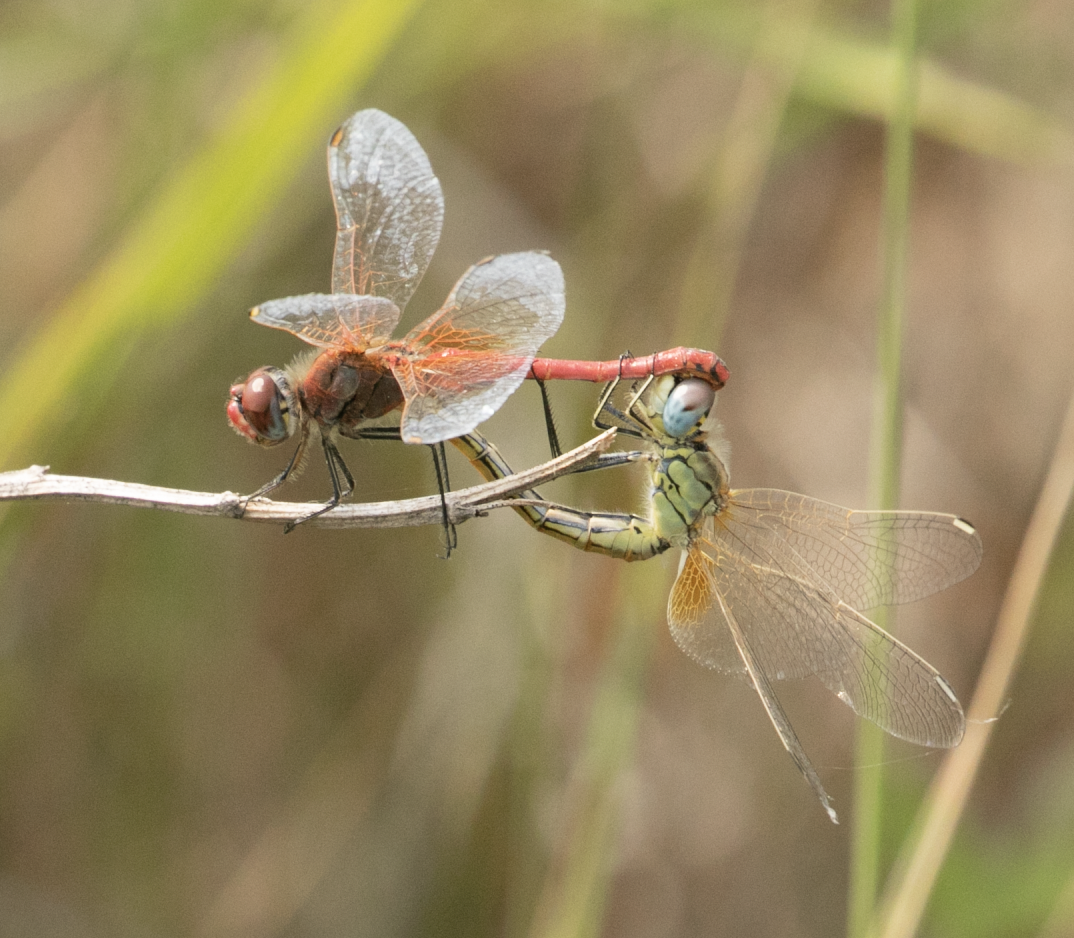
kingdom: Animalia
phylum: Arthropoda
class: Insecta
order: Odonata
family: Libellulidae
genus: Sympetrum
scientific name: Sympetrum fonscolombii
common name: Red-veined darter
